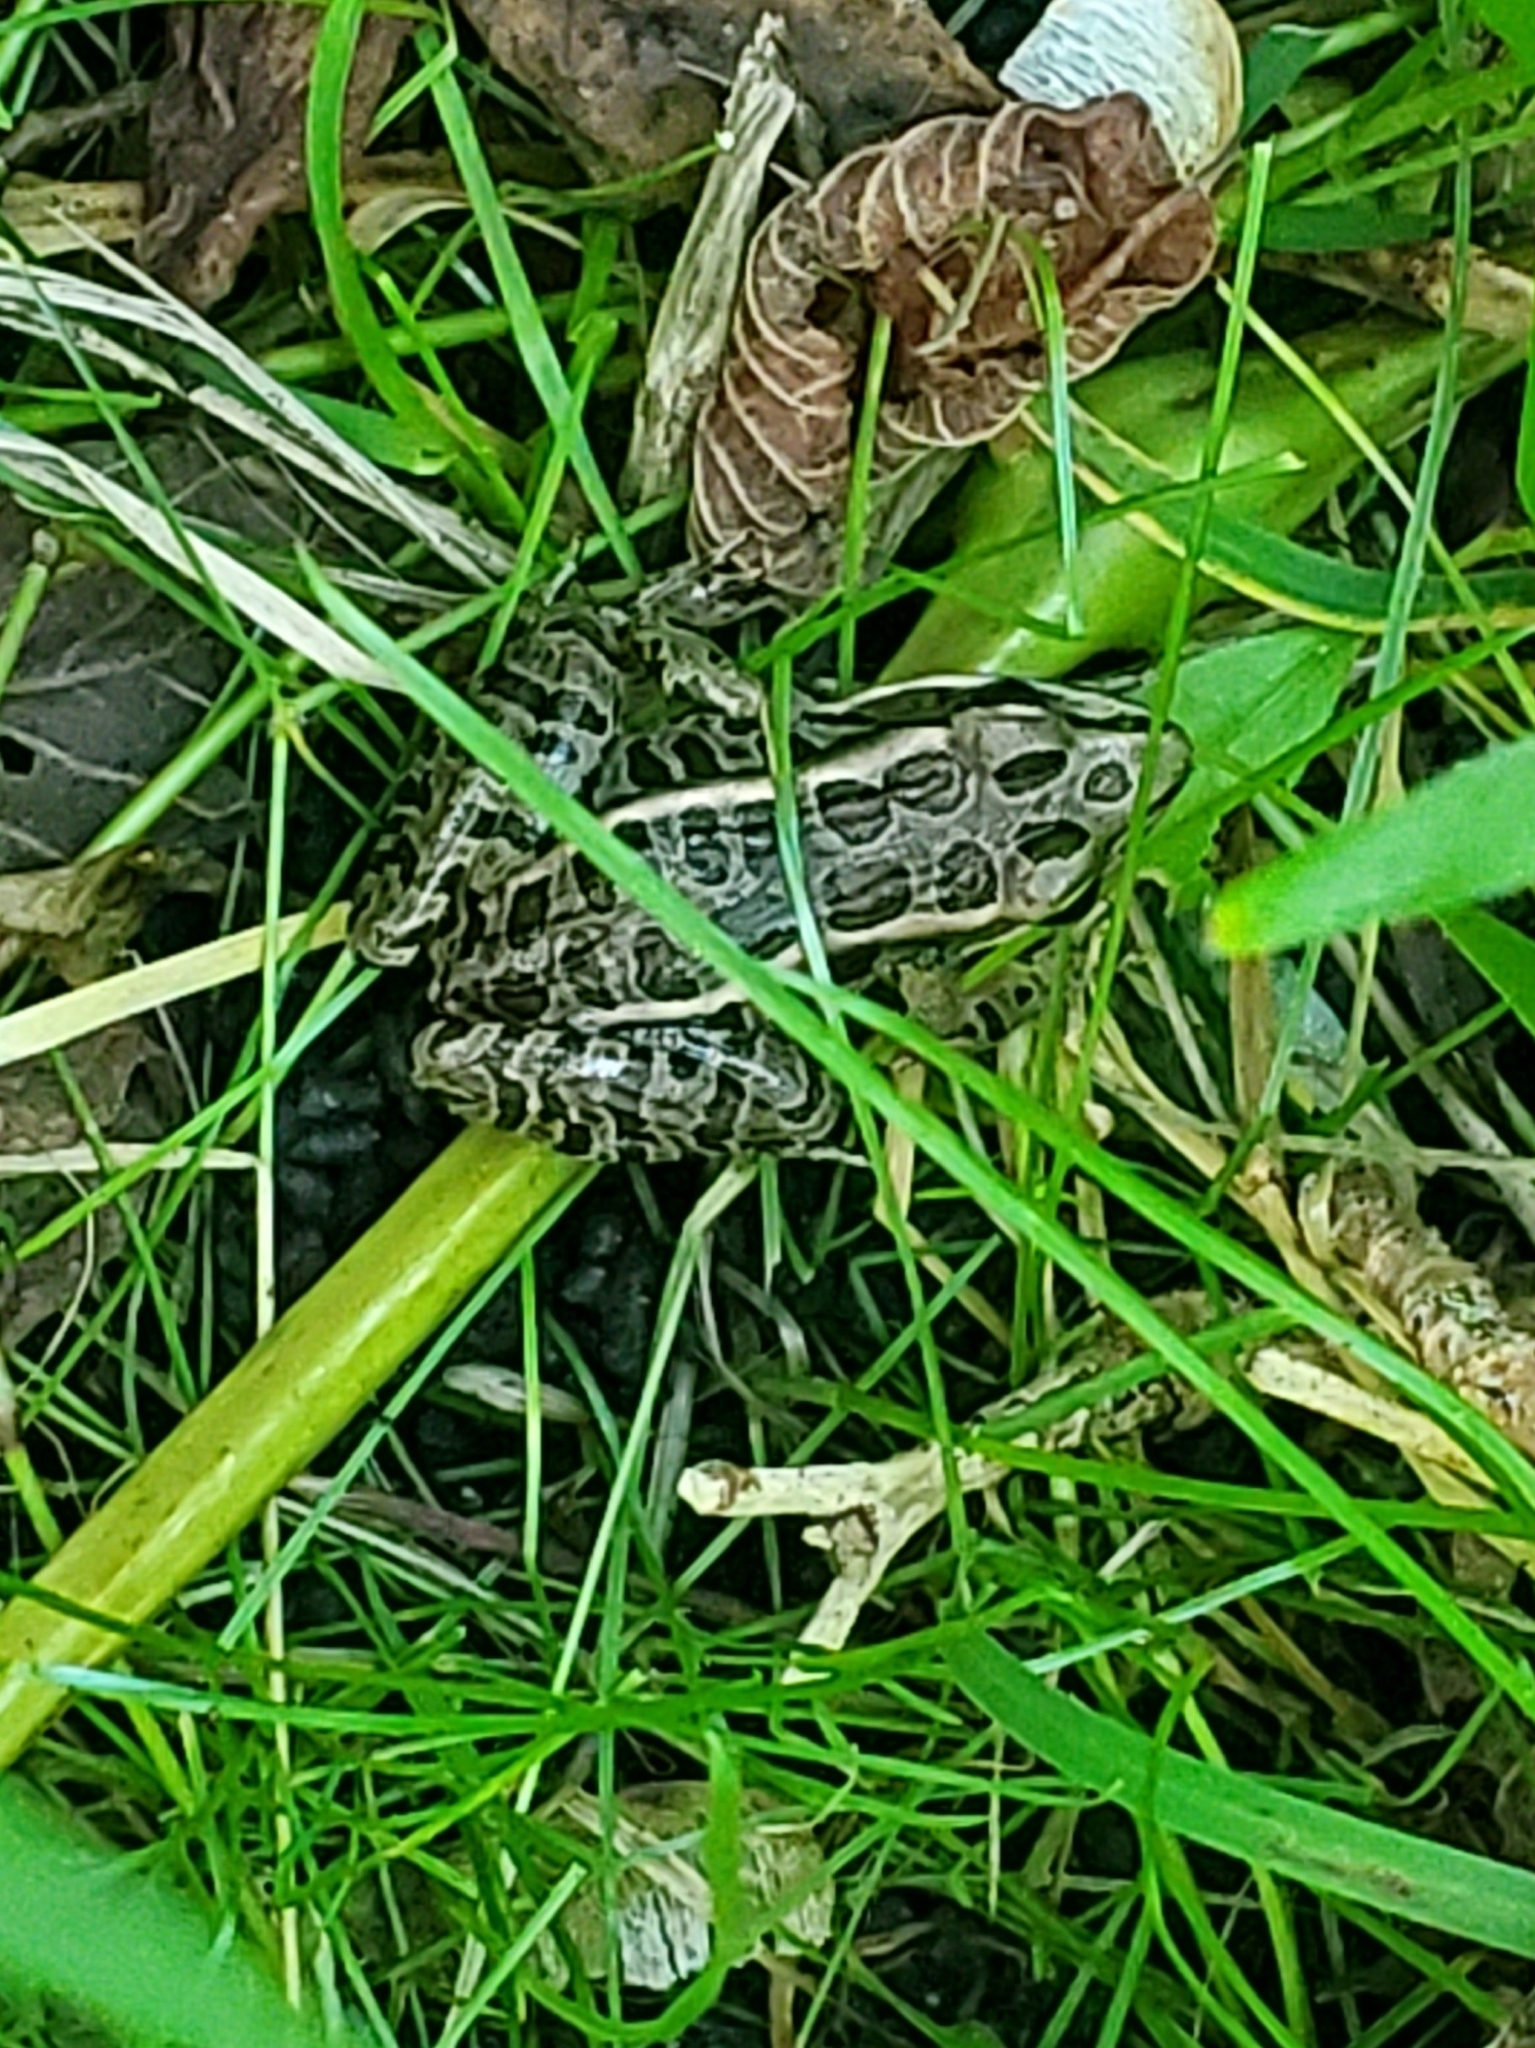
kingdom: Animalia
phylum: Chordata
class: Amphibia
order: Anura
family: Ranidae
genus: Lithobates
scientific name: Lithobates palustris
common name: Pickerel frog
